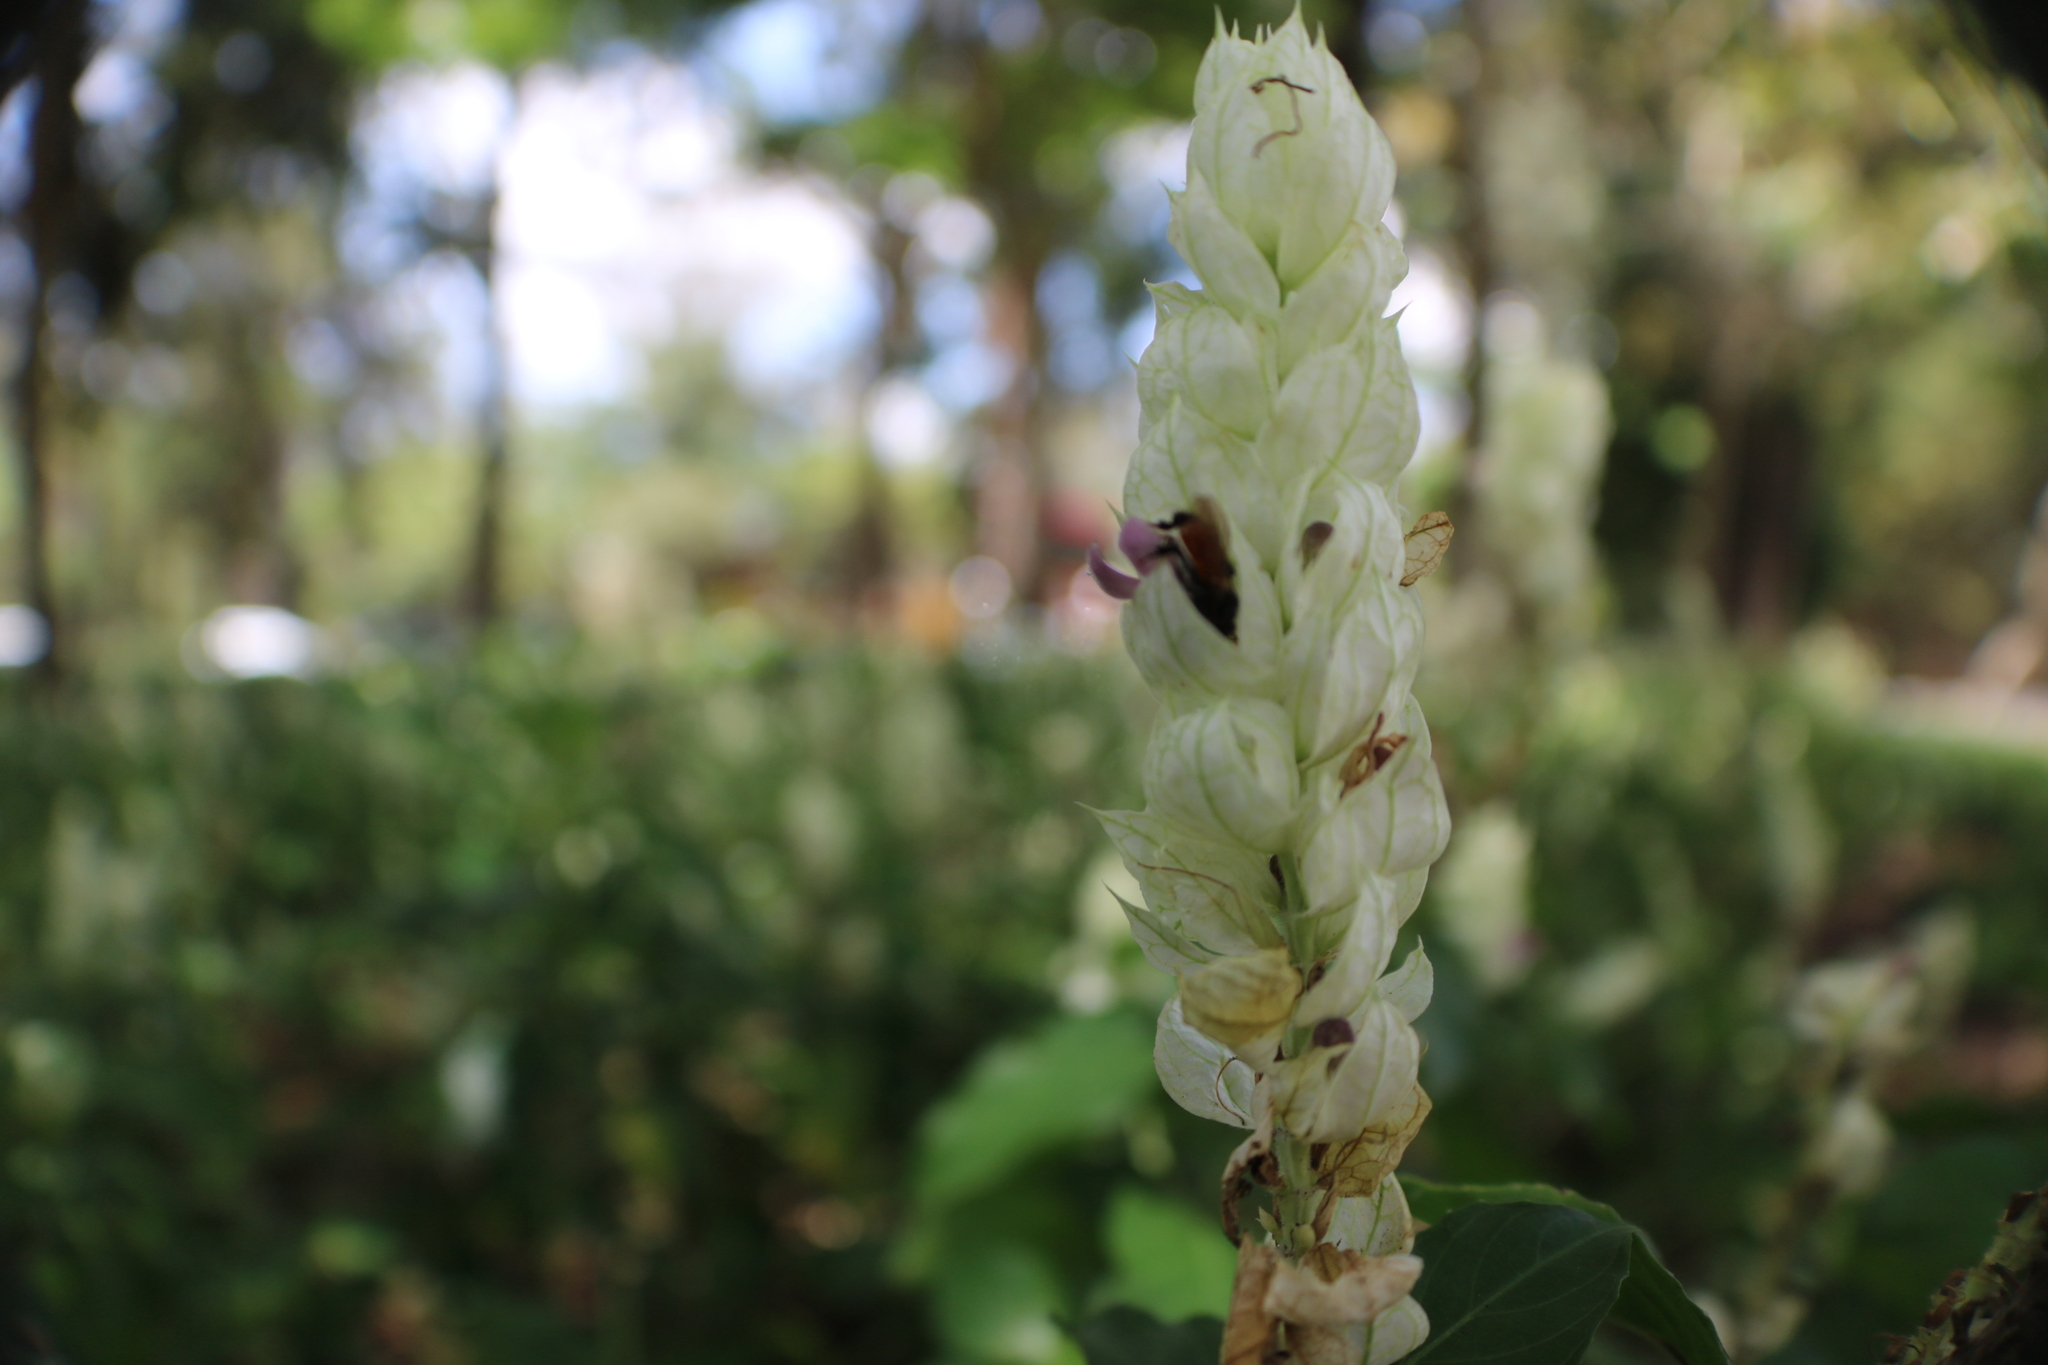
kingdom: Animalia
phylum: Arthropoda
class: Insecta
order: Hymenoptera
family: Apidae
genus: Trigona
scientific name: Trigona fulviventris
